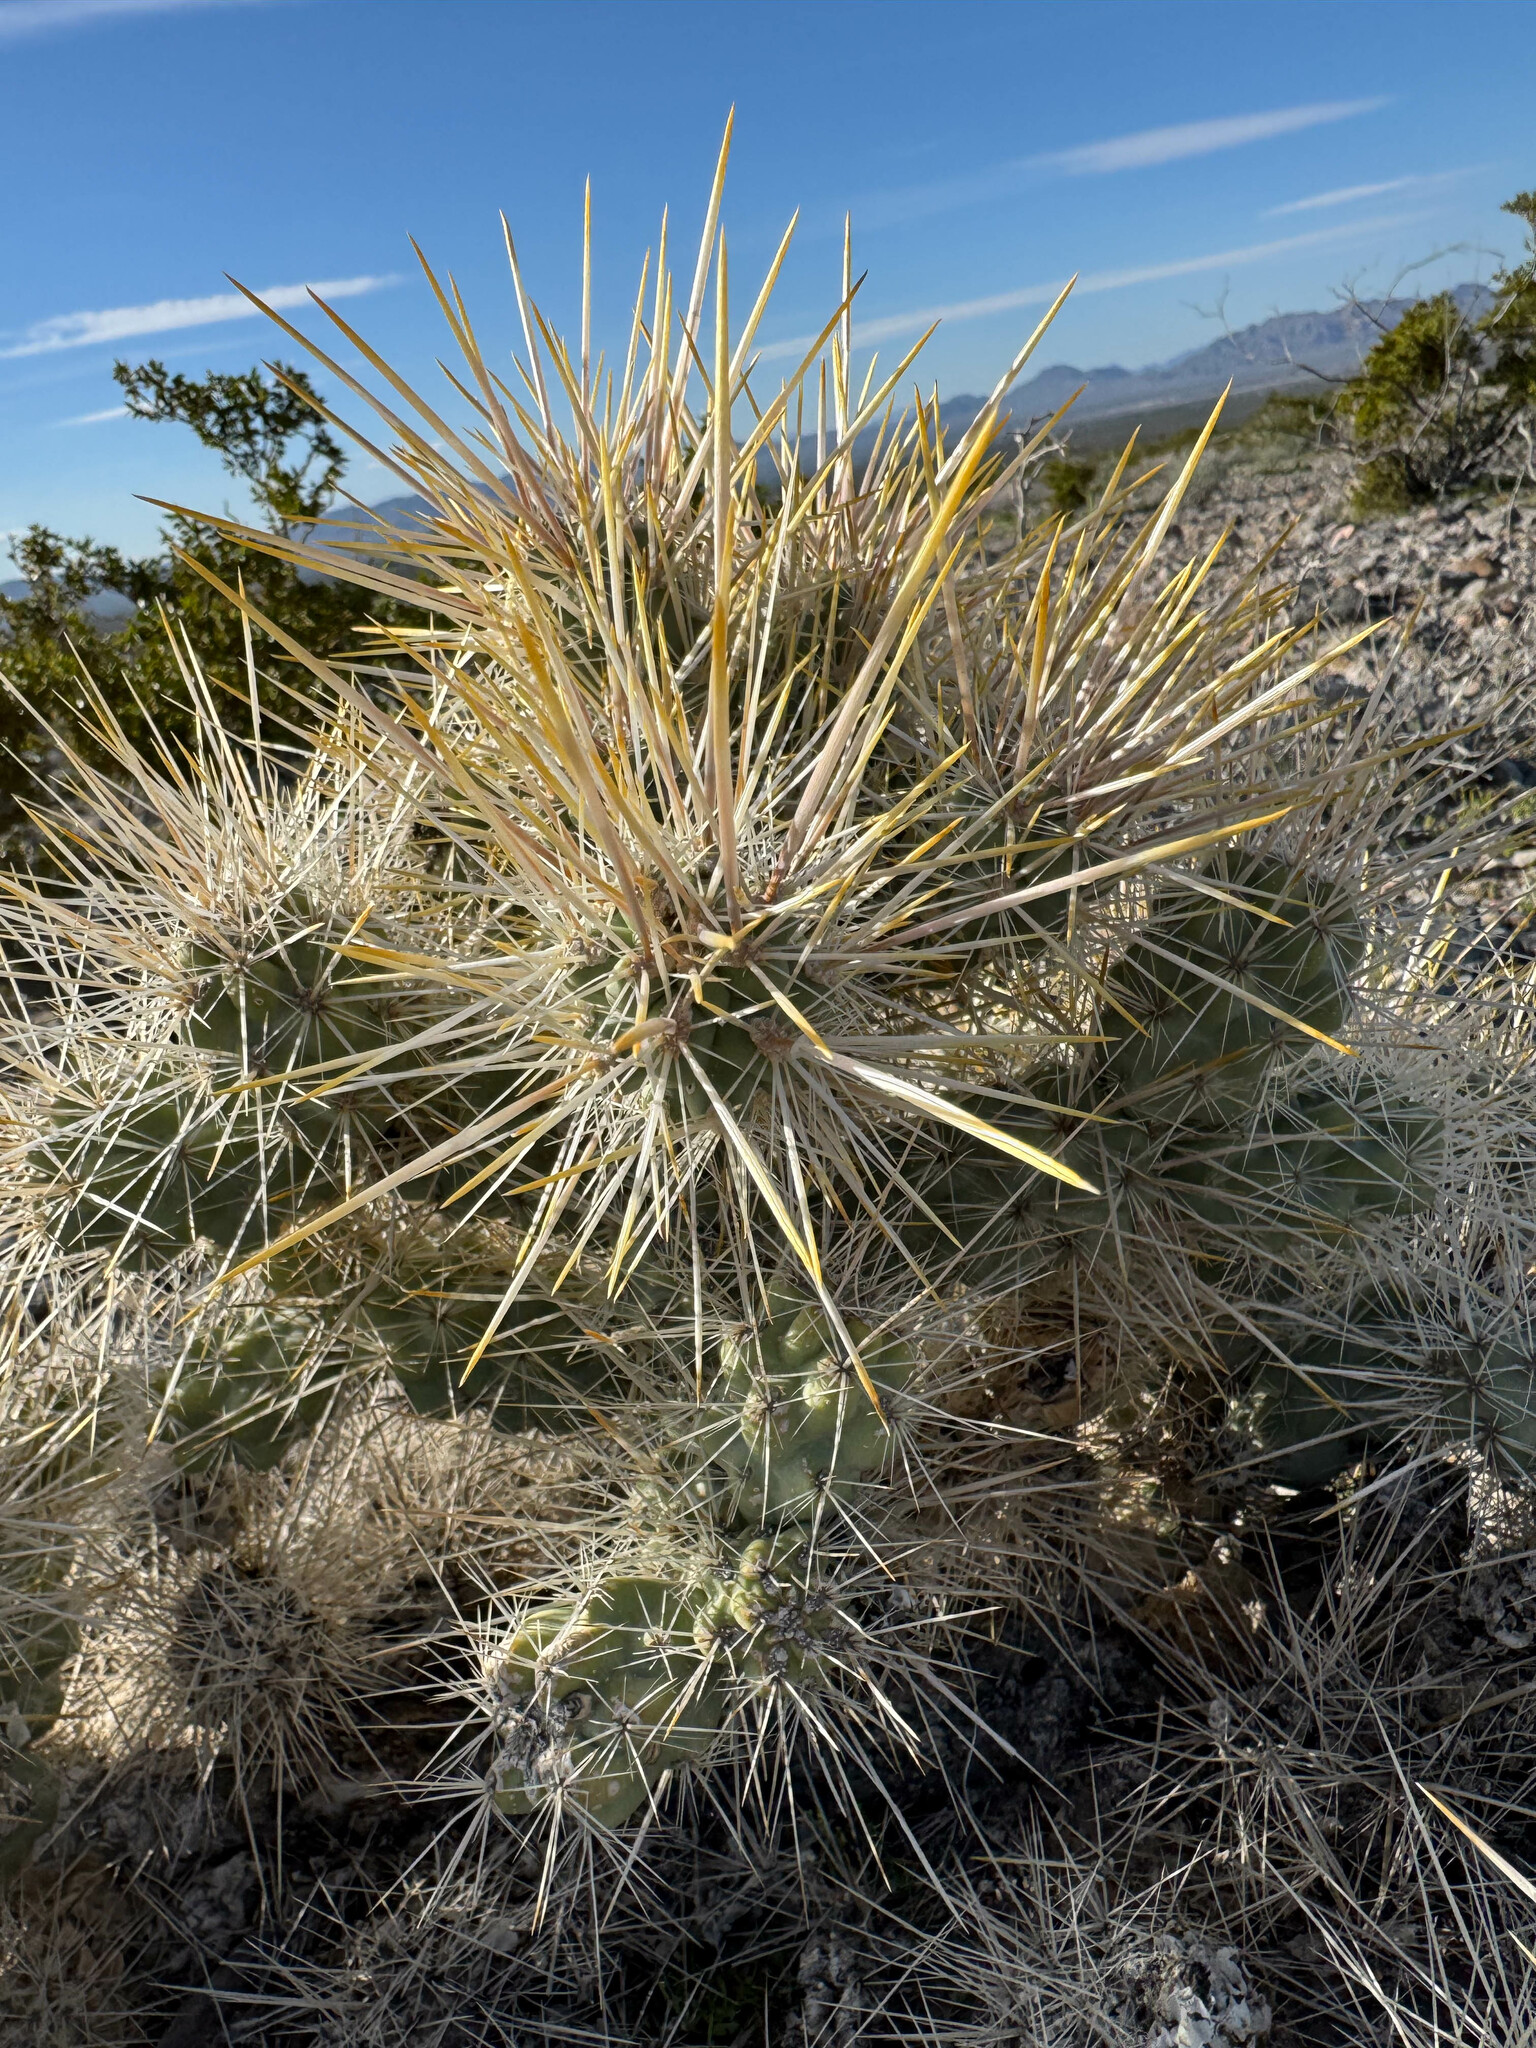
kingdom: Plantae
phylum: Tracheophyta
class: Magnoliopsida
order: Caryophyllales
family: Cactaceae
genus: Cylindropuntia
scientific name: Cylindropuntia echinocarpa
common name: Ground cholla
